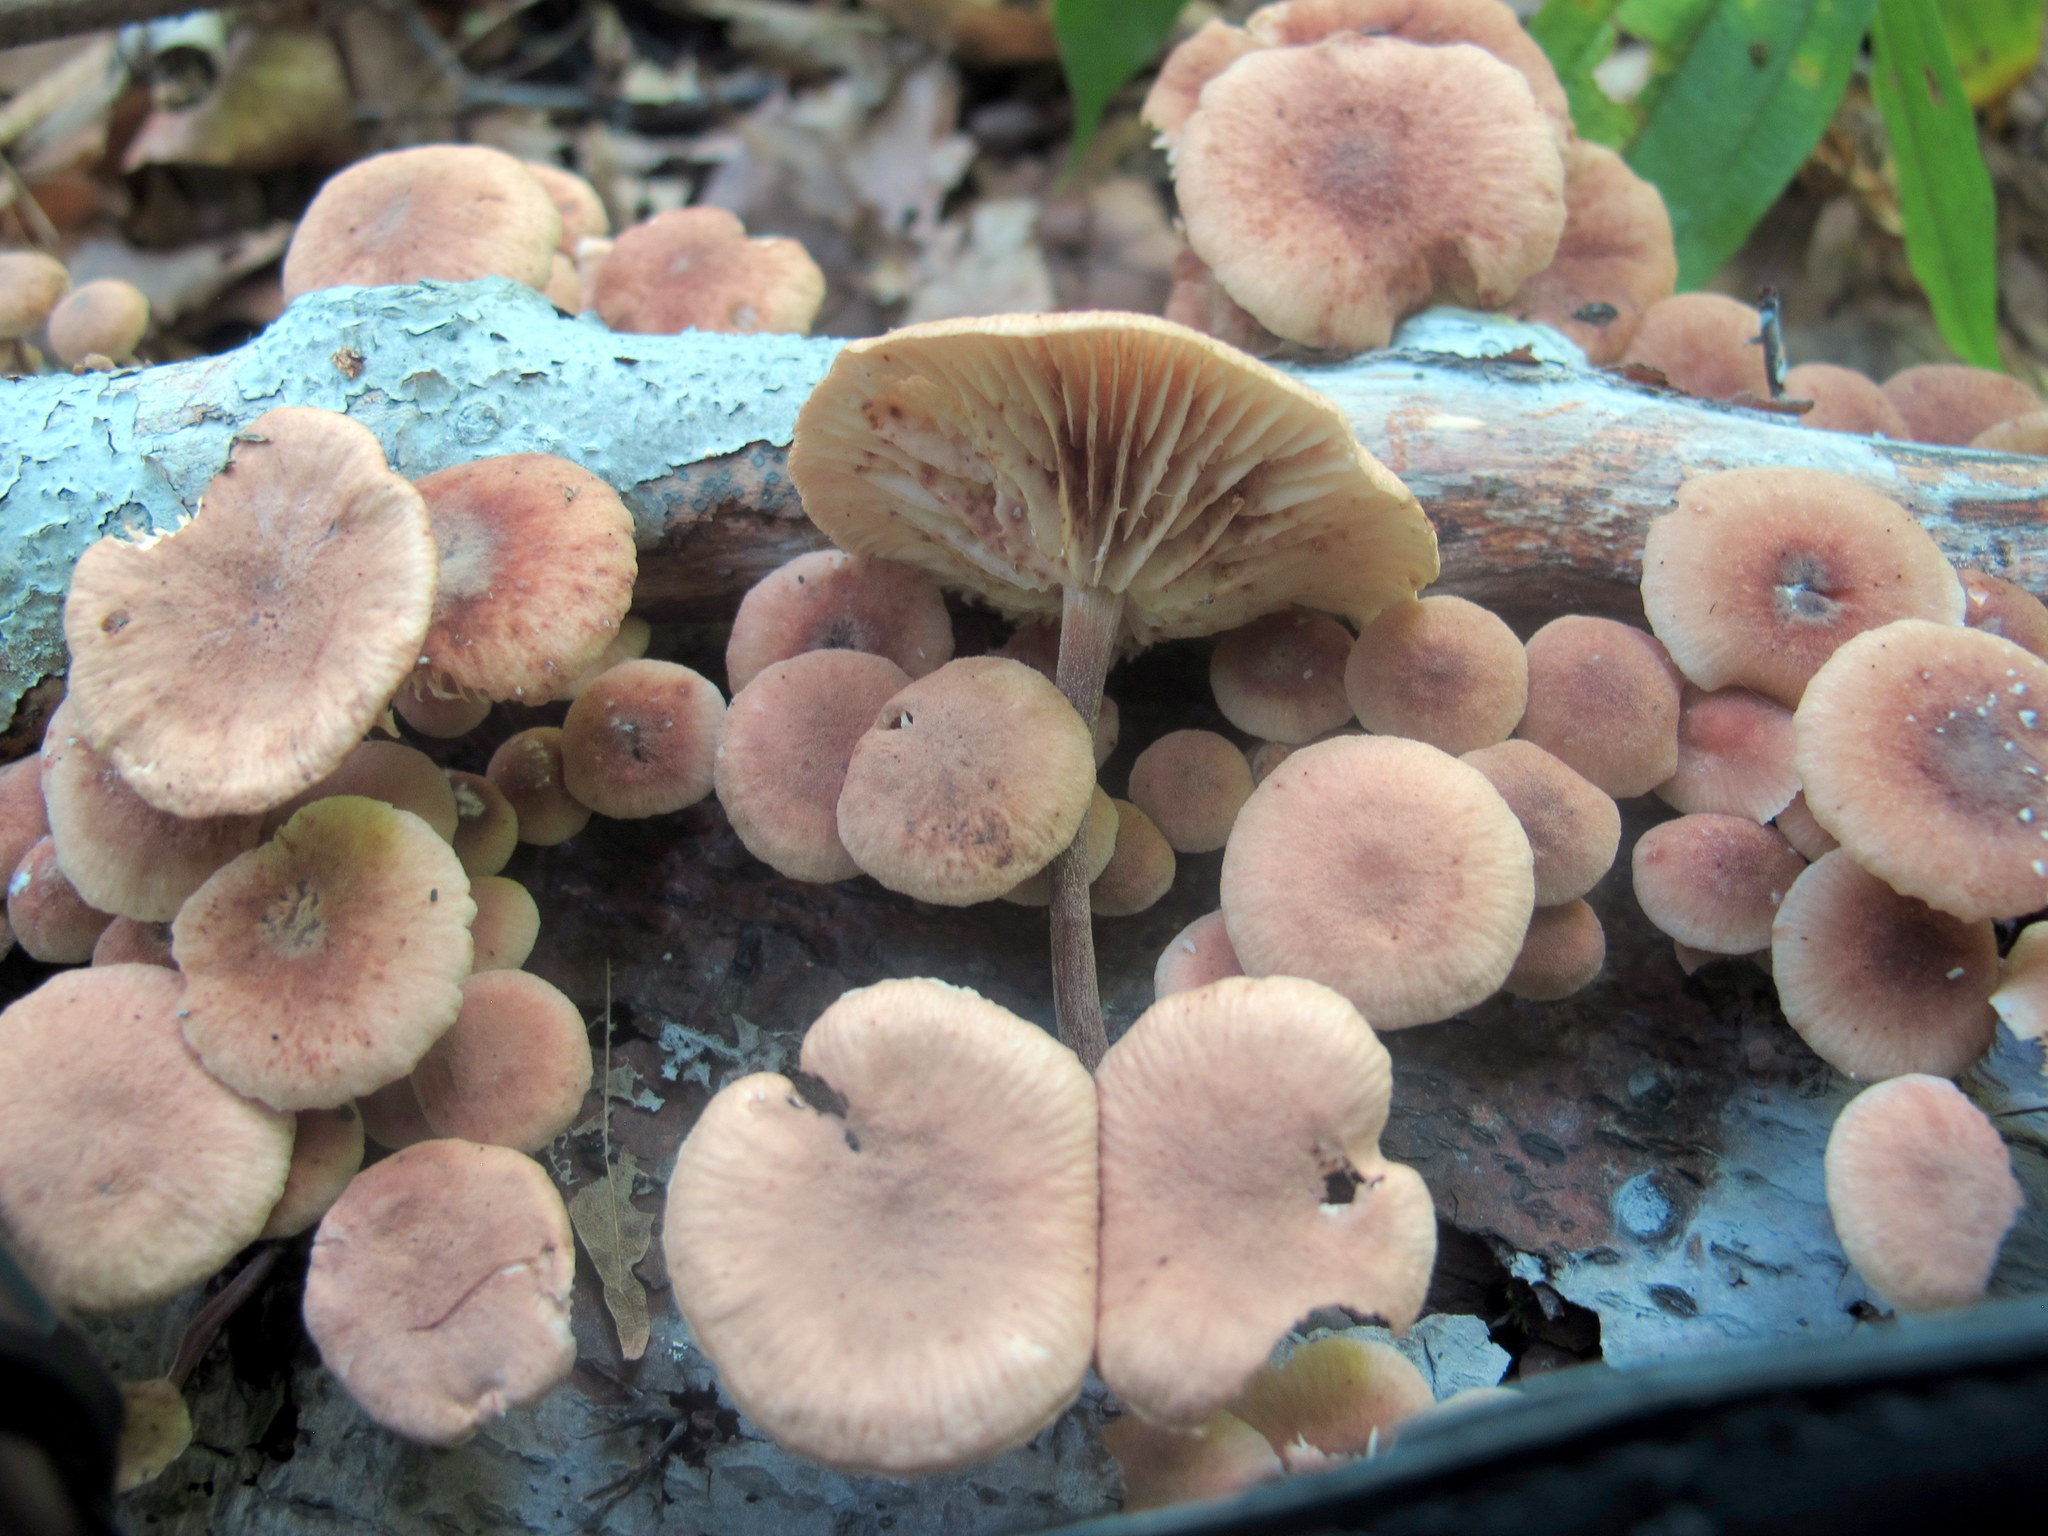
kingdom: Fungi
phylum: Basidiomycota
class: Agaricomycetes
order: Agaricales
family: Omphalotaceae
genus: Collybiopsis
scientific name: Collybiopsis dichroa
